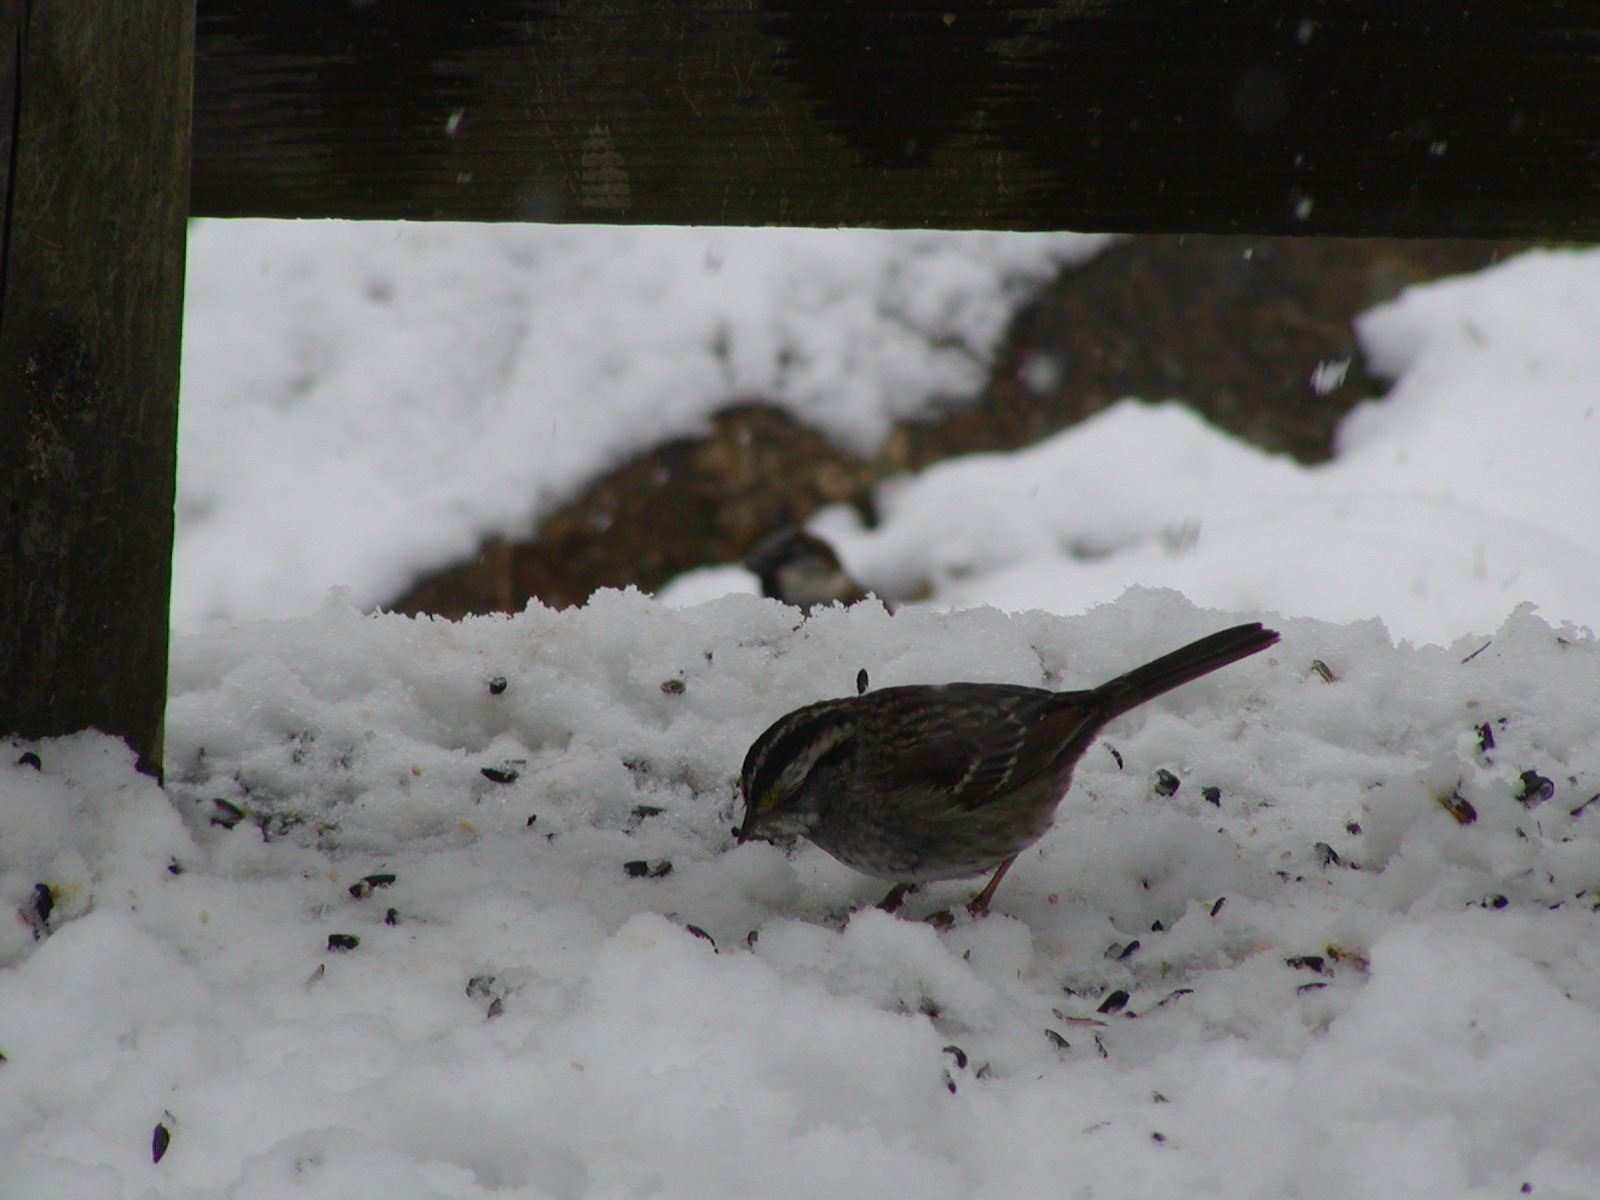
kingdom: Animalia
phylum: Chordata
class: Aves
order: Passeriformes
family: Passerellidae
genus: Zonotrichia
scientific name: Zonotrichia albicollis
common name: White-throated sparrow
